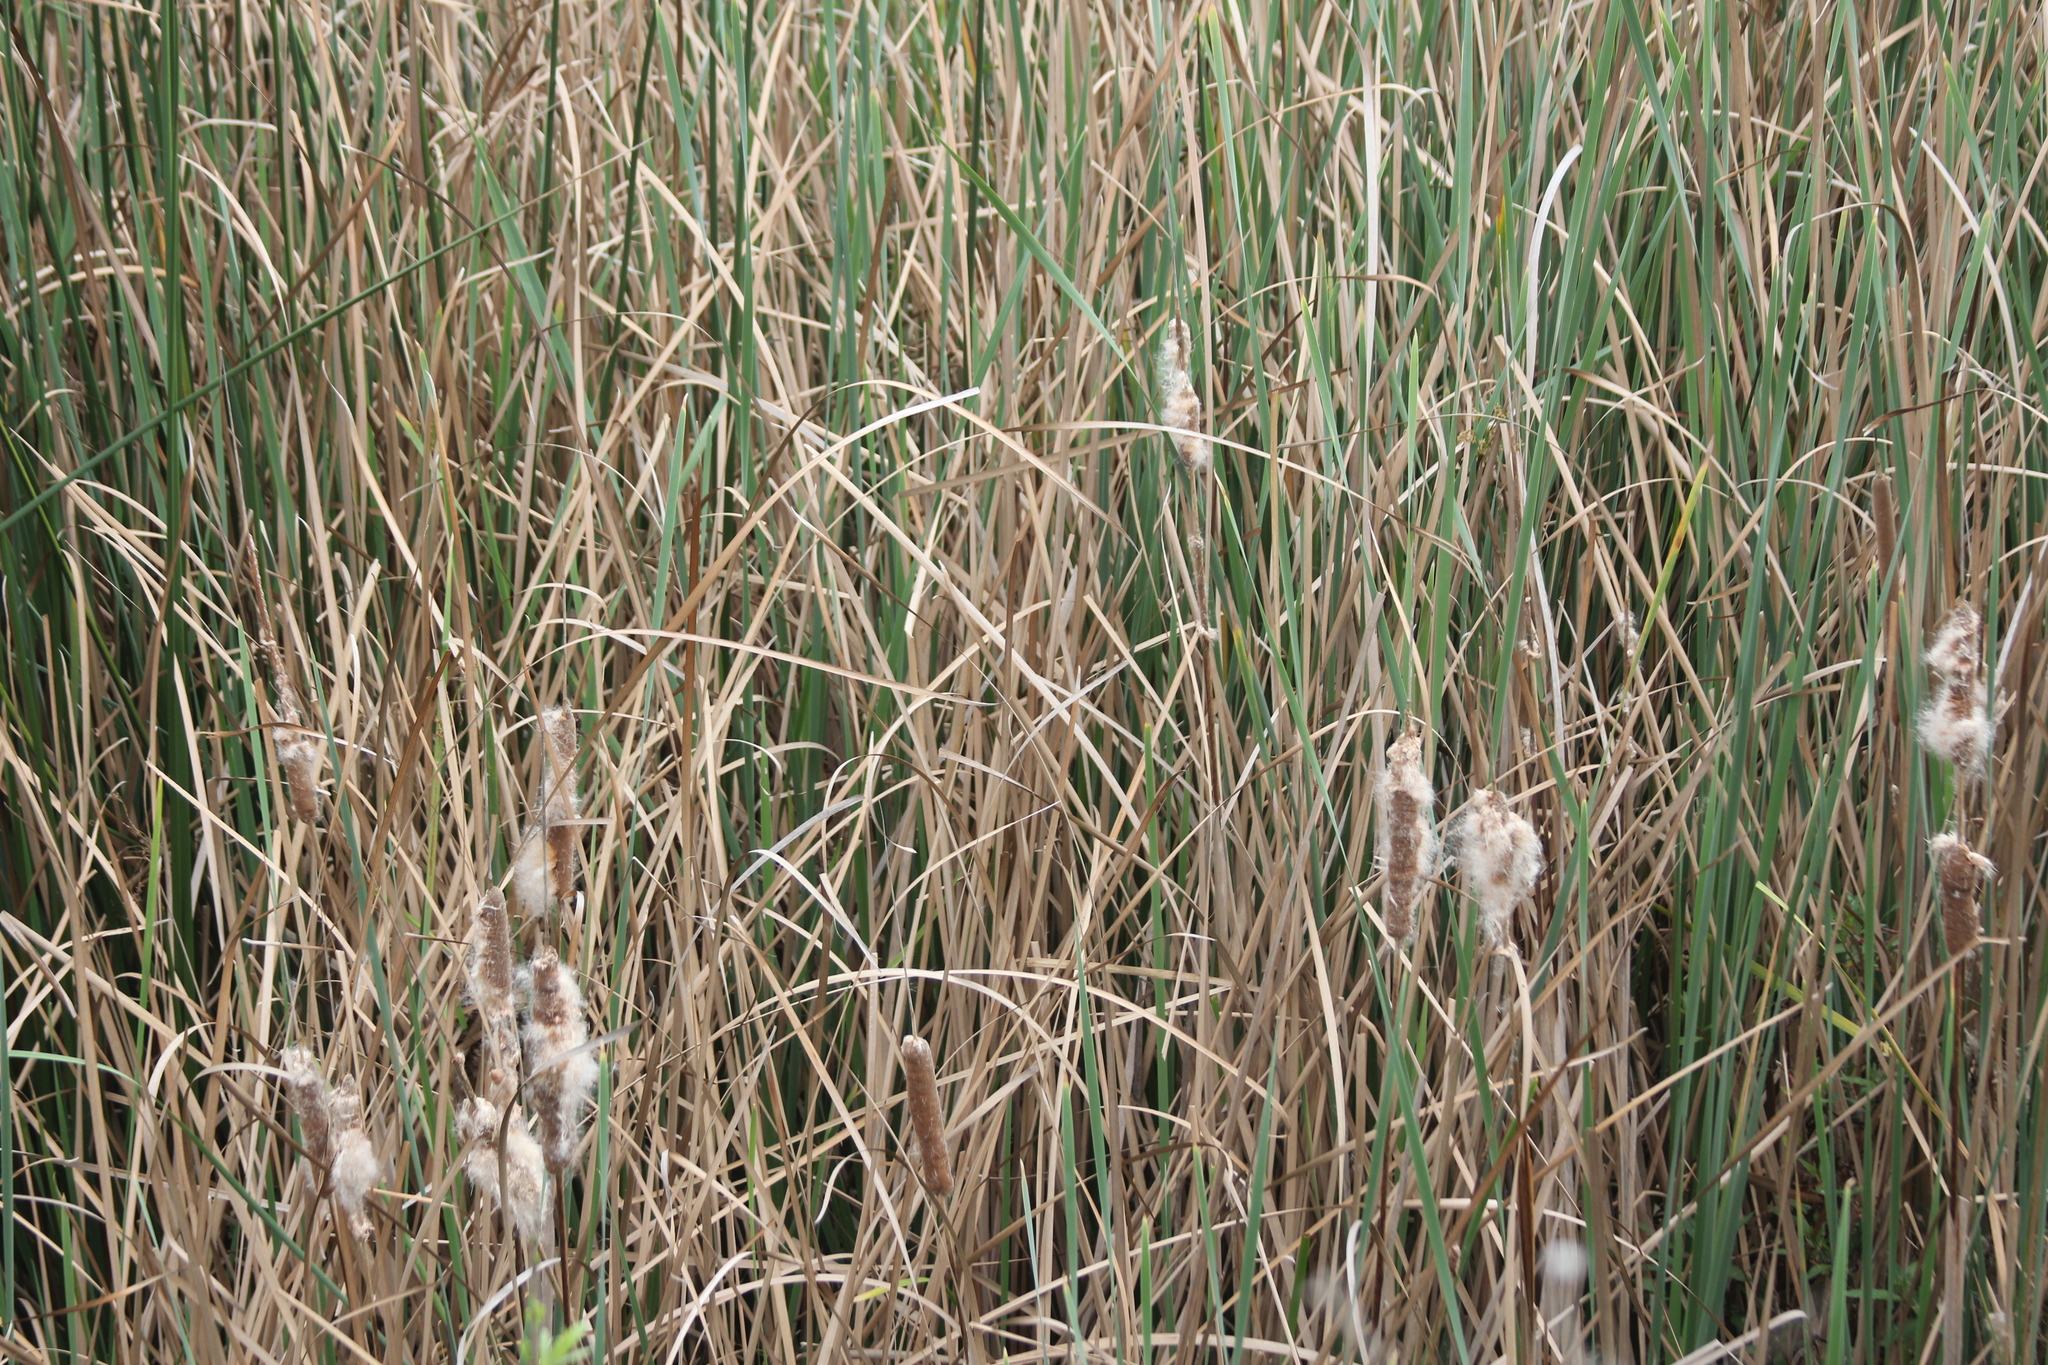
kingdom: Plantae
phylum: Tracheophyta
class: Liliopsida
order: Poales
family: Typhaceae
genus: Typha
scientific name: Typha domingensis
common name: Southern cattail
